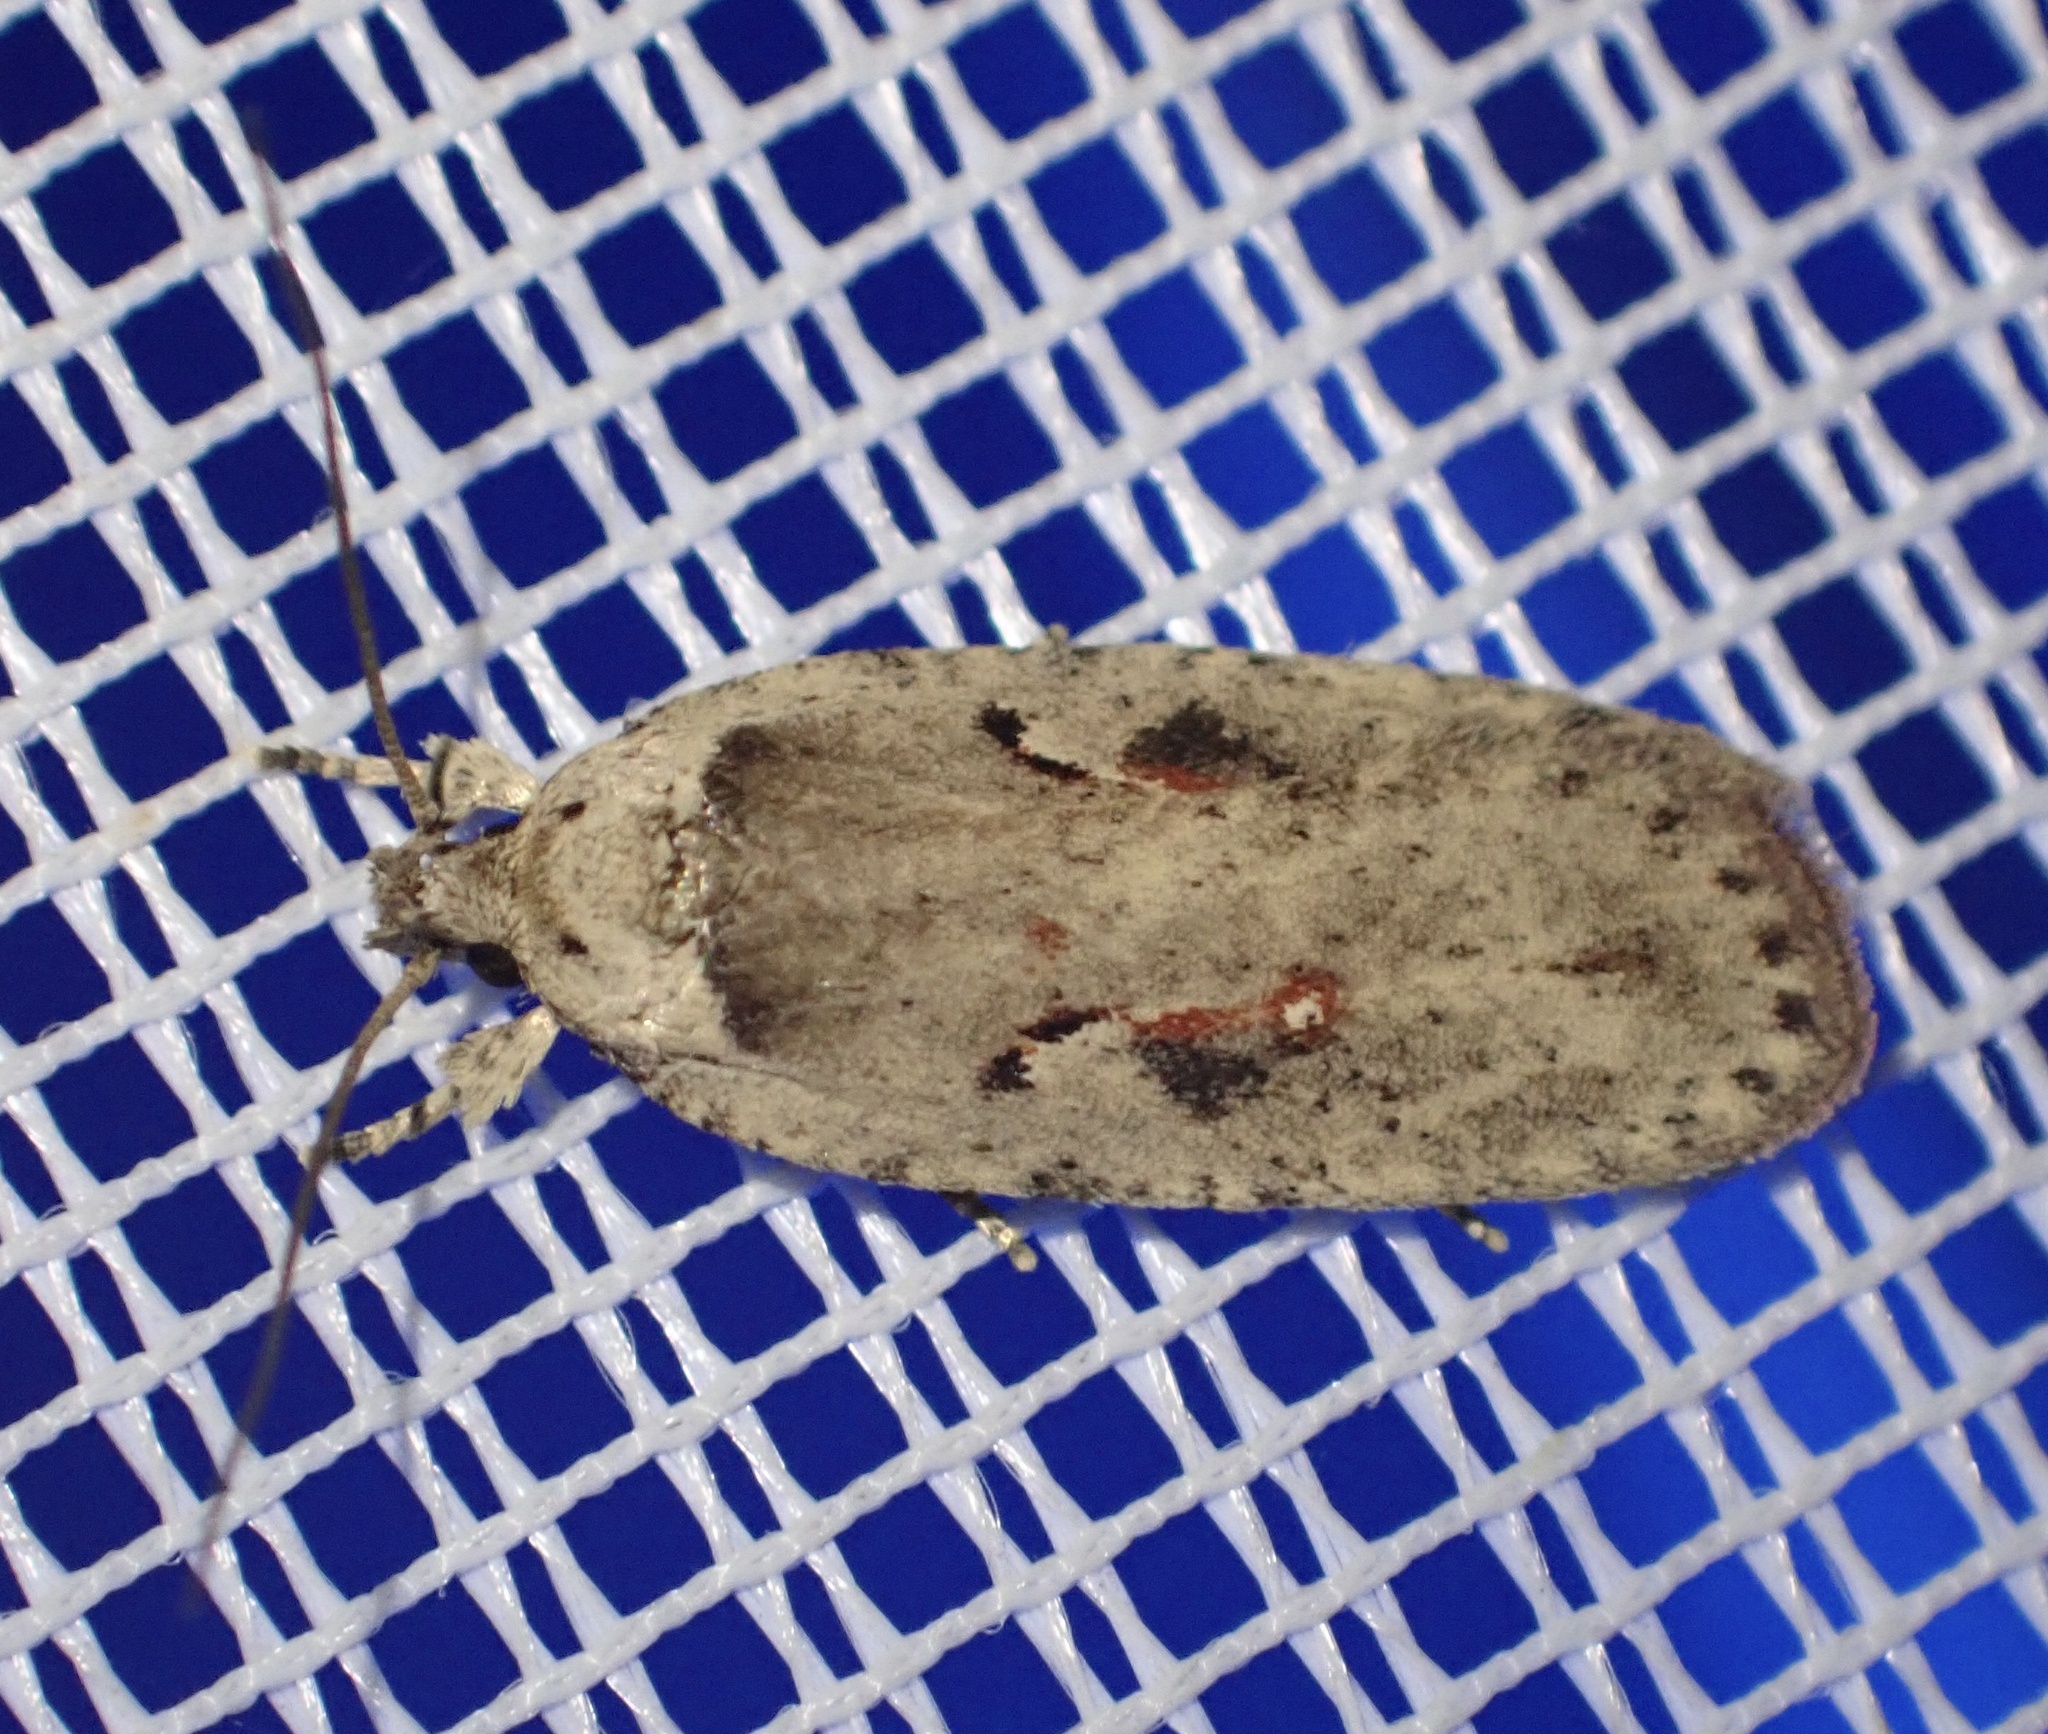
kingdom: Animalia
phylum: Arthropoda
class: Insecta
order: Lepidoptera
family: Depressariidae
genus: Agonopterix
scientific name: Agonopterix ocellana
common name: Red-letter flat-body
